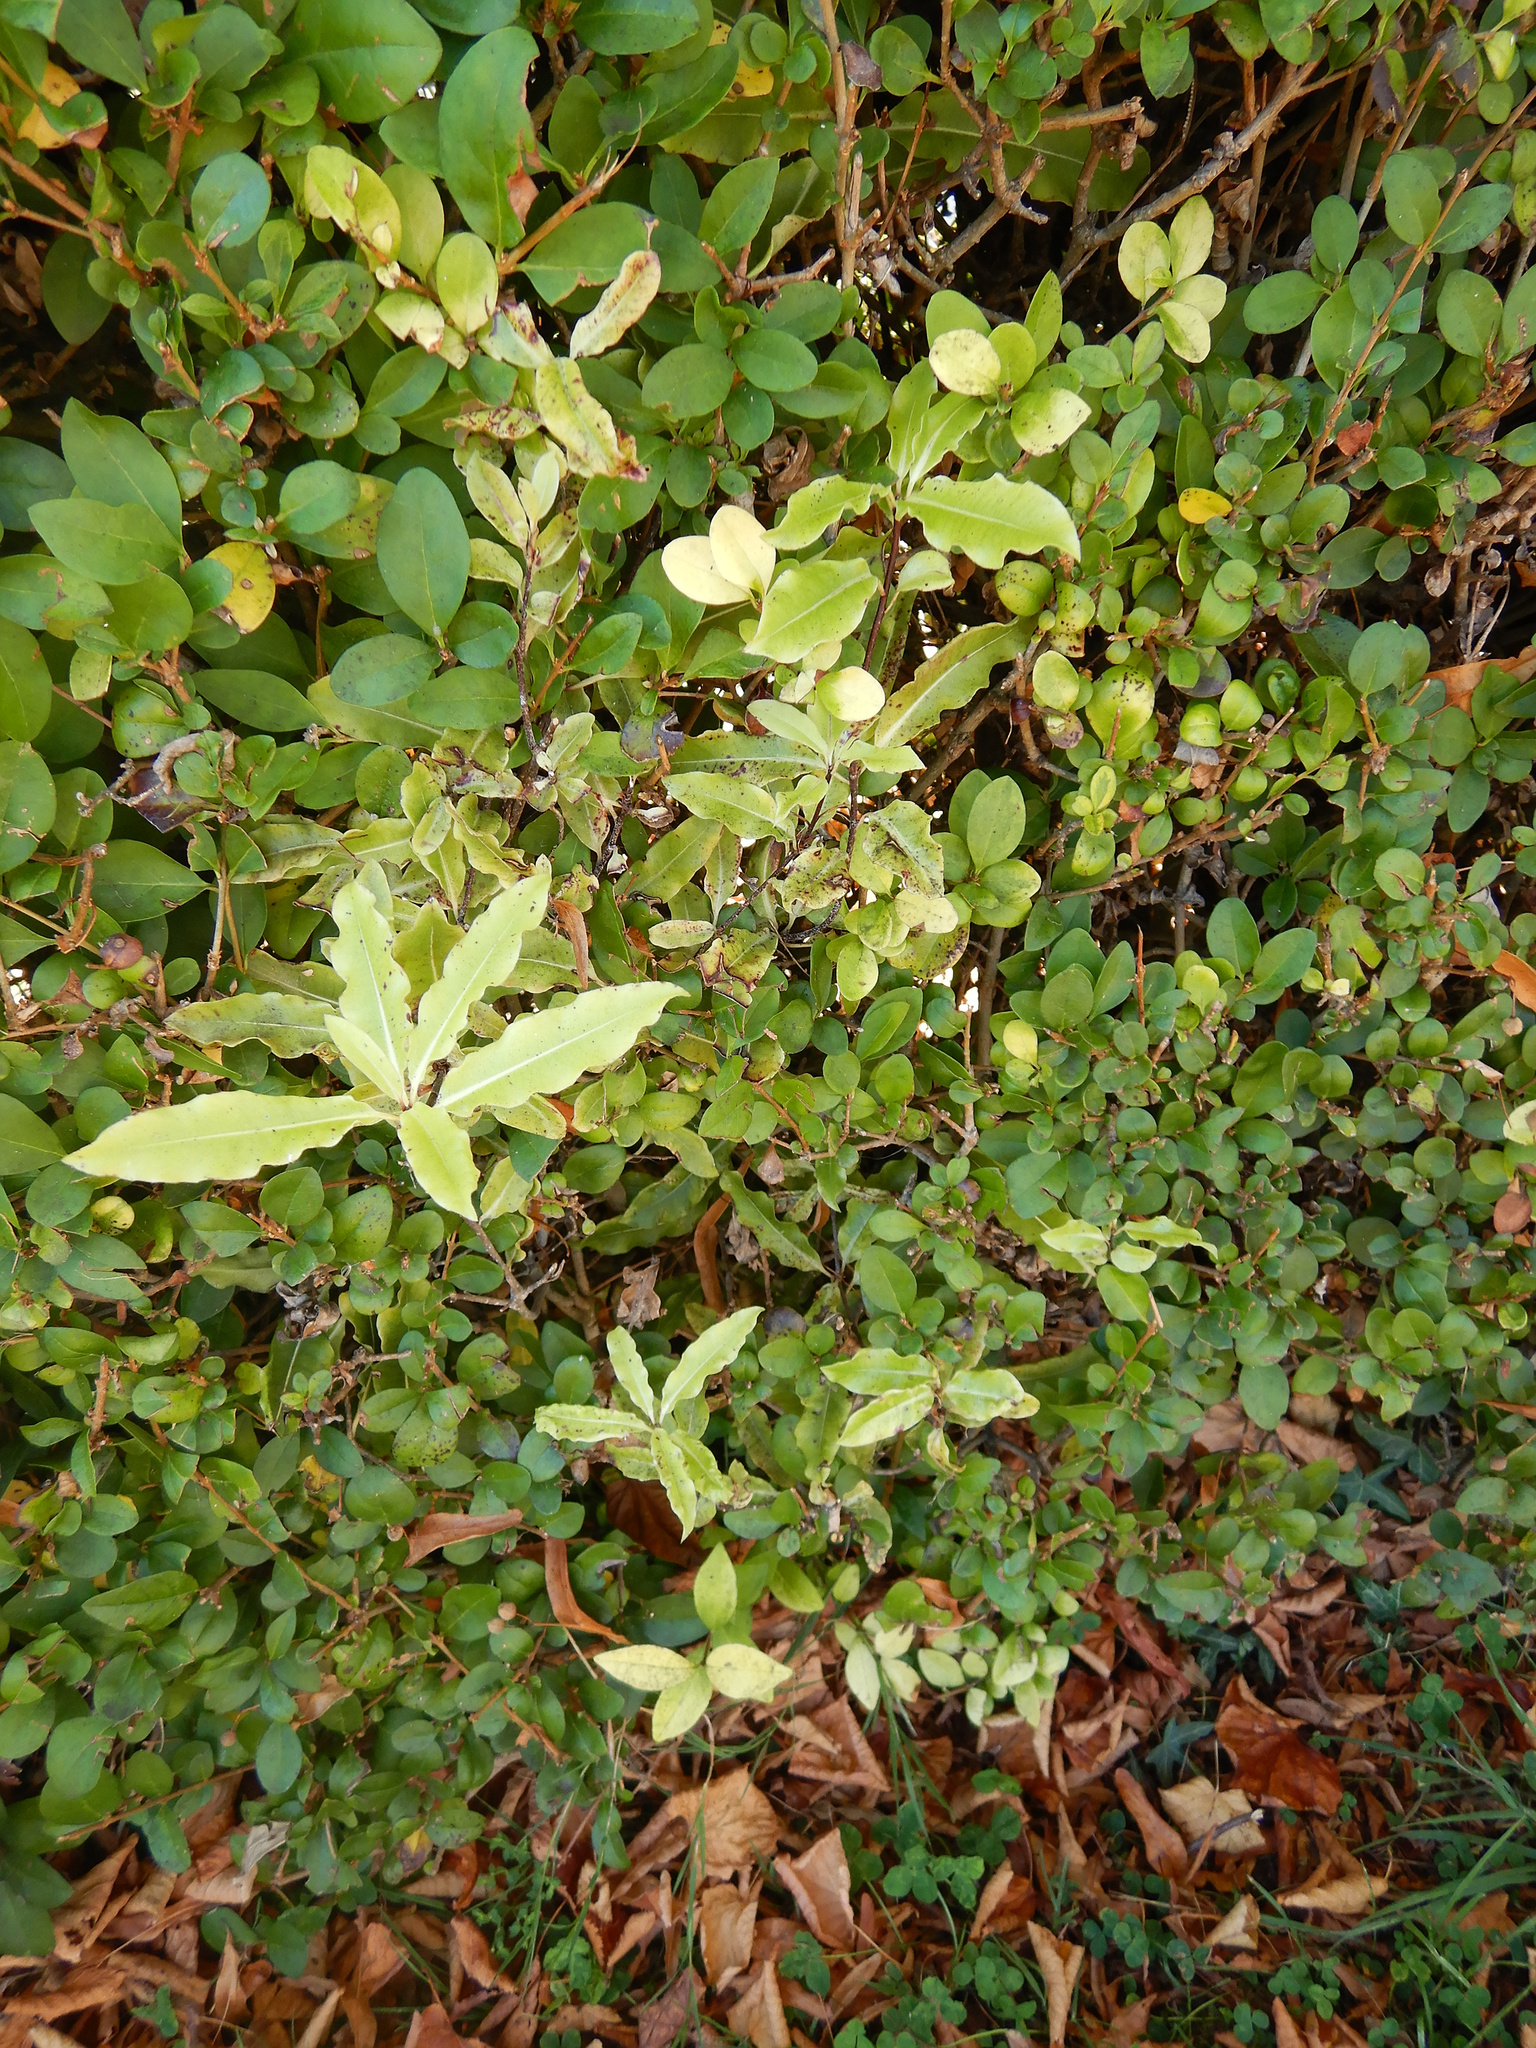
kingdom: Plantae
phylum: Tracheophyta
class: Magnoliopsida
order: Apiales
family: Pittosporaceae
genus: Pittosporum
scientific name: Pittosporum tenuifolium
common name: Kohuhu
